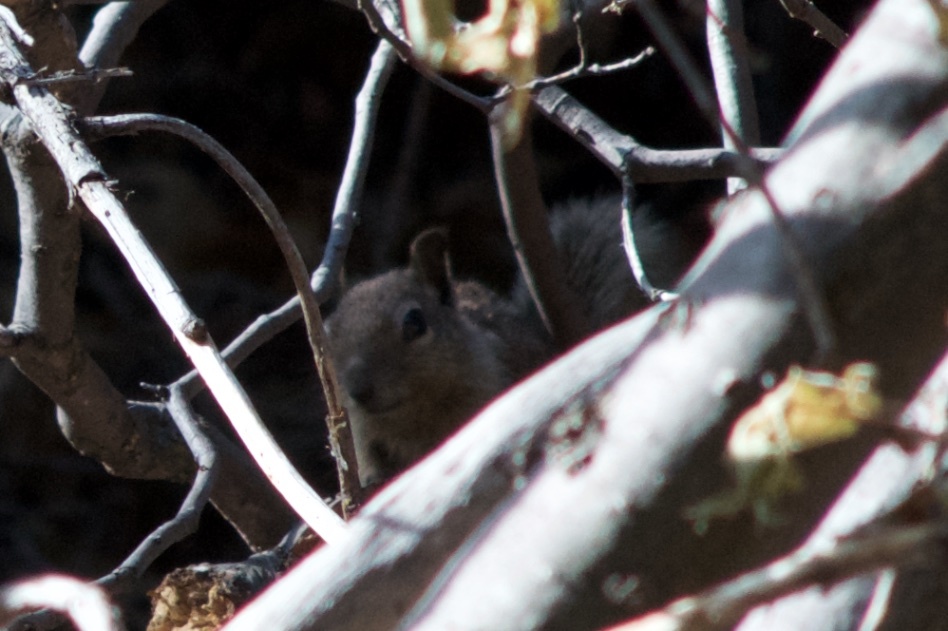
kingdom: Animalia
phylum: Chordata
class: Mammalia
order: Rodentia
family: Sciuridae
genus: Otospermophilus
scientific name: Otospermophilus beecheyi
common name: California ground squirrel
